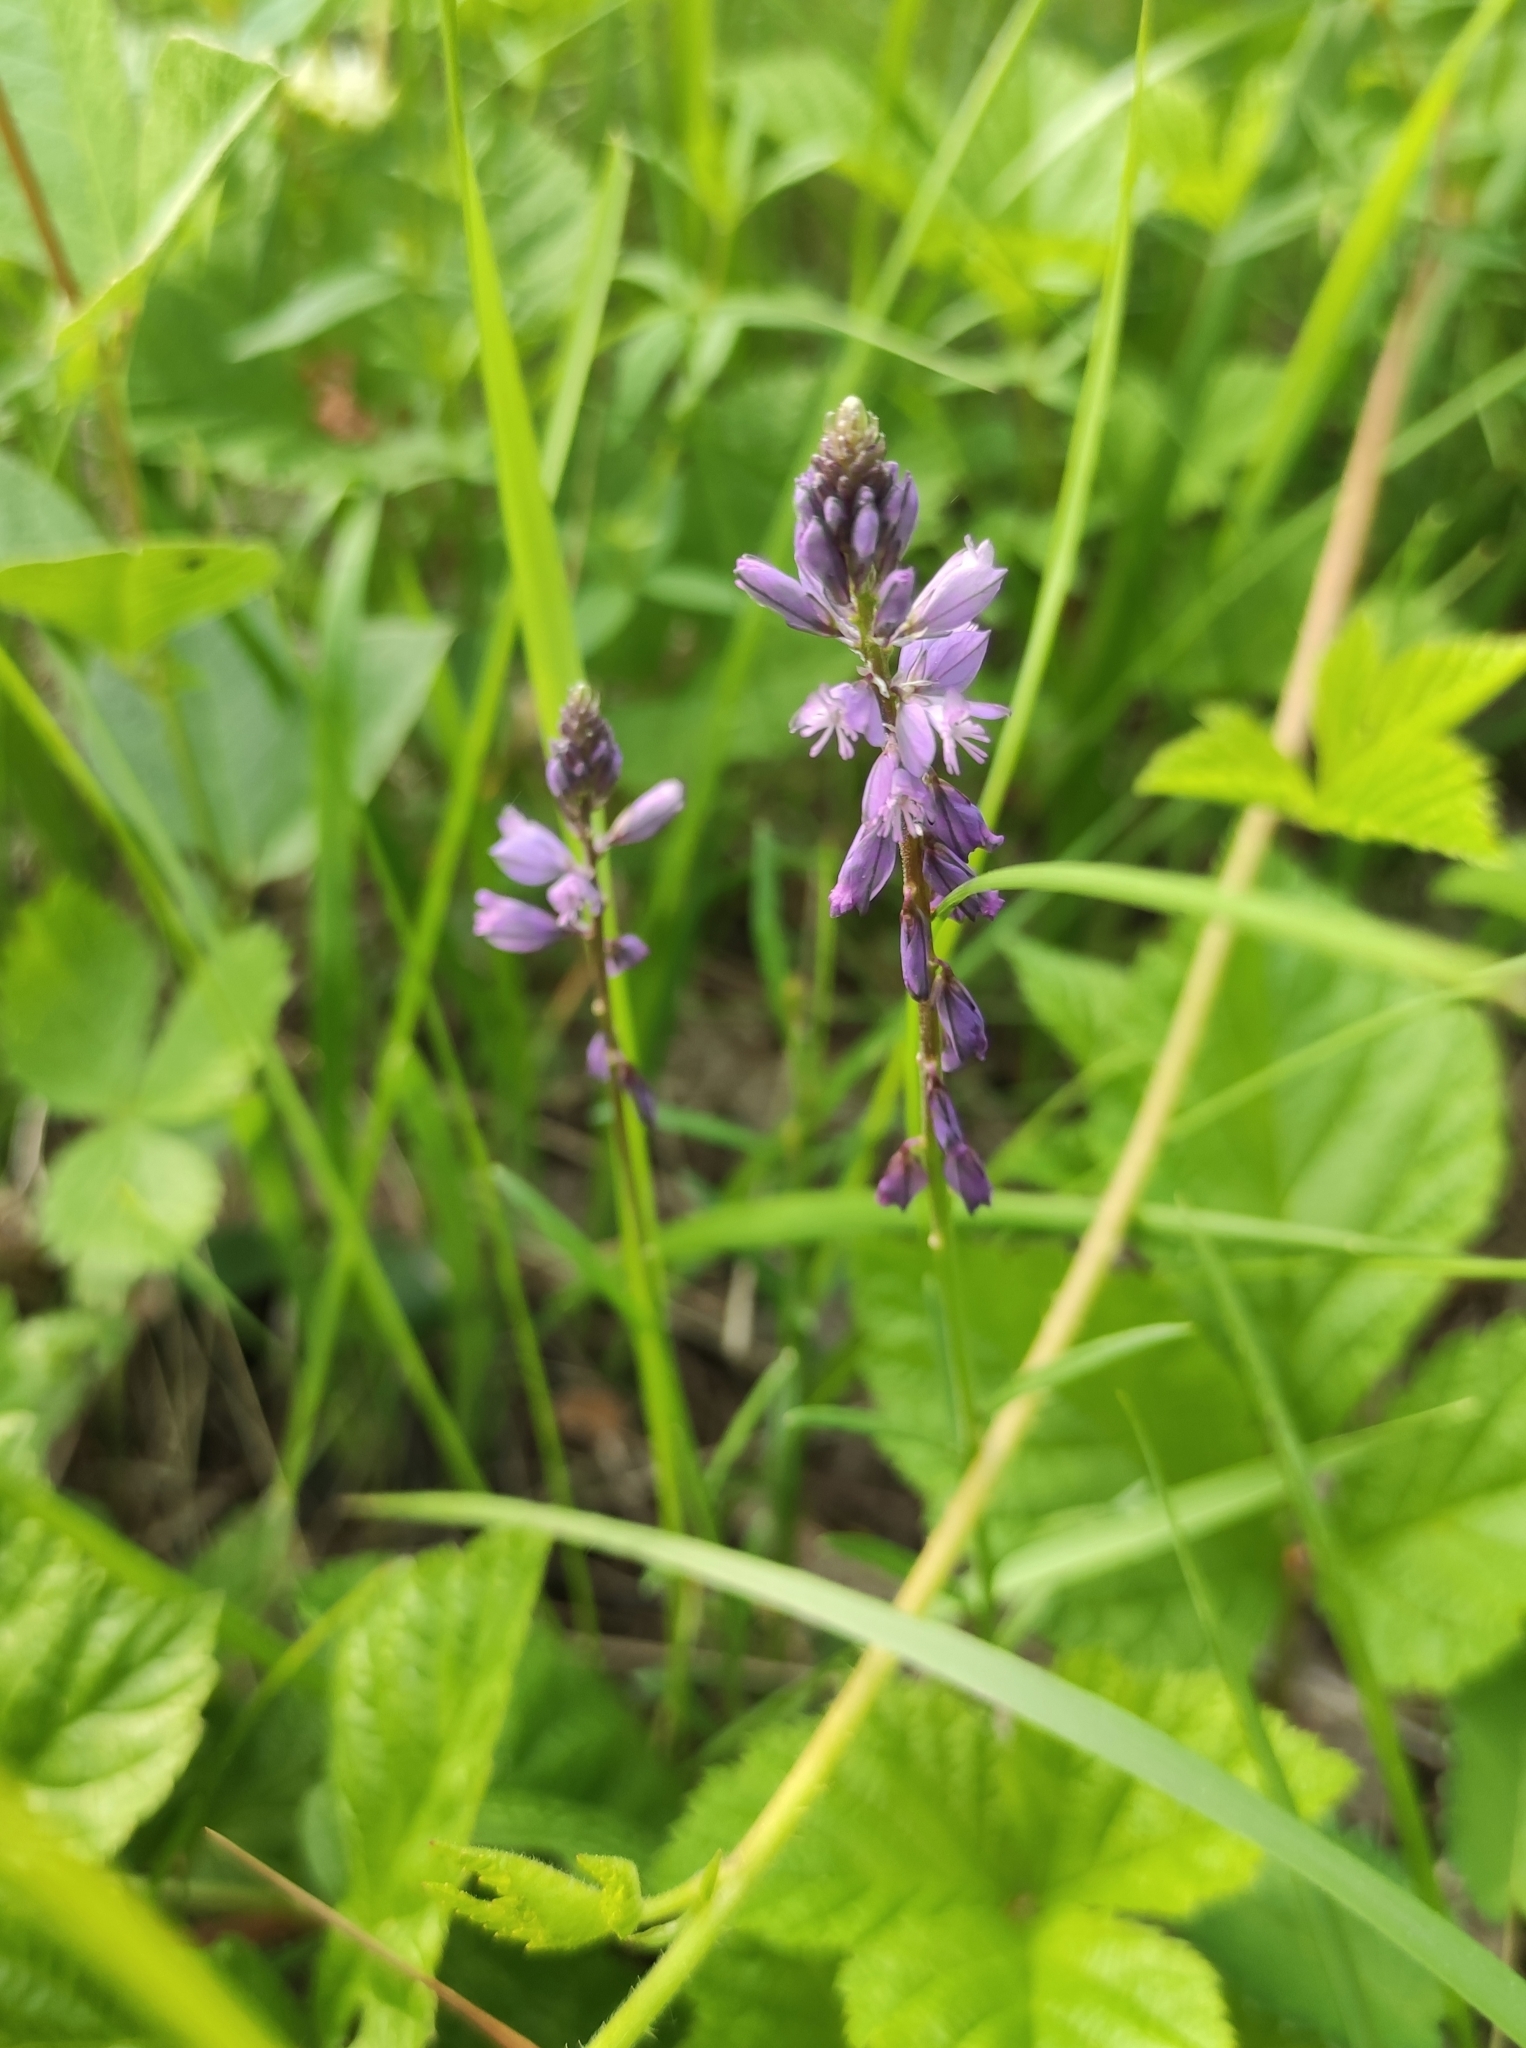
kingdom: Plantae
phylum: Tracheophyta
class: Magnoliopsida
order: Fabales
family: Polygalaceae
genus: Polygala
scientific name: Polygala comosa
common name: Tufted milkwort
